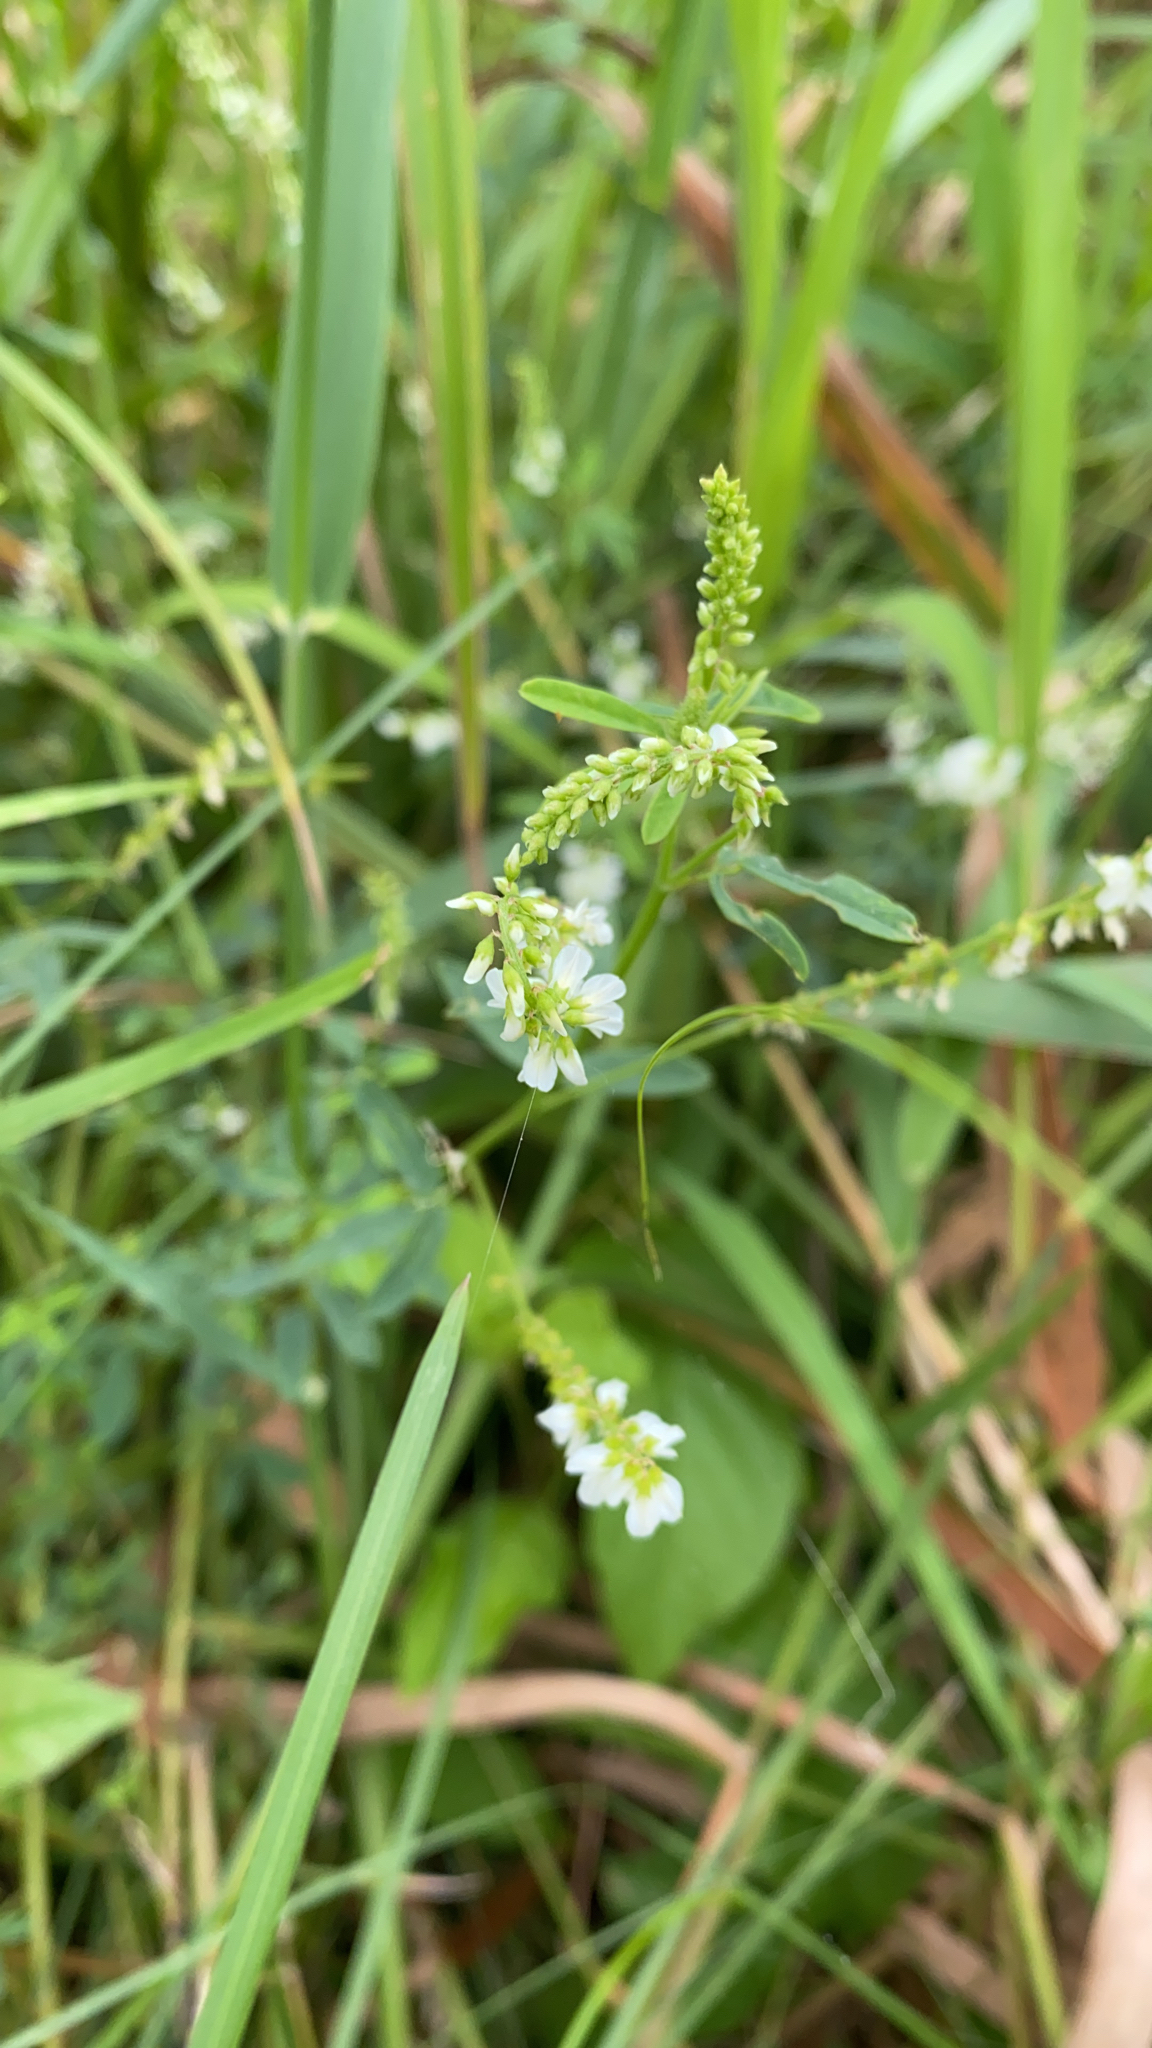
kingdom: Plantae
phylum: Tracheophyta
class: Magnoliopsida
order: Fabales
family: Fabaceae
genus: Melilotus
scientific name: Melilotus albus
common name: White melilot
